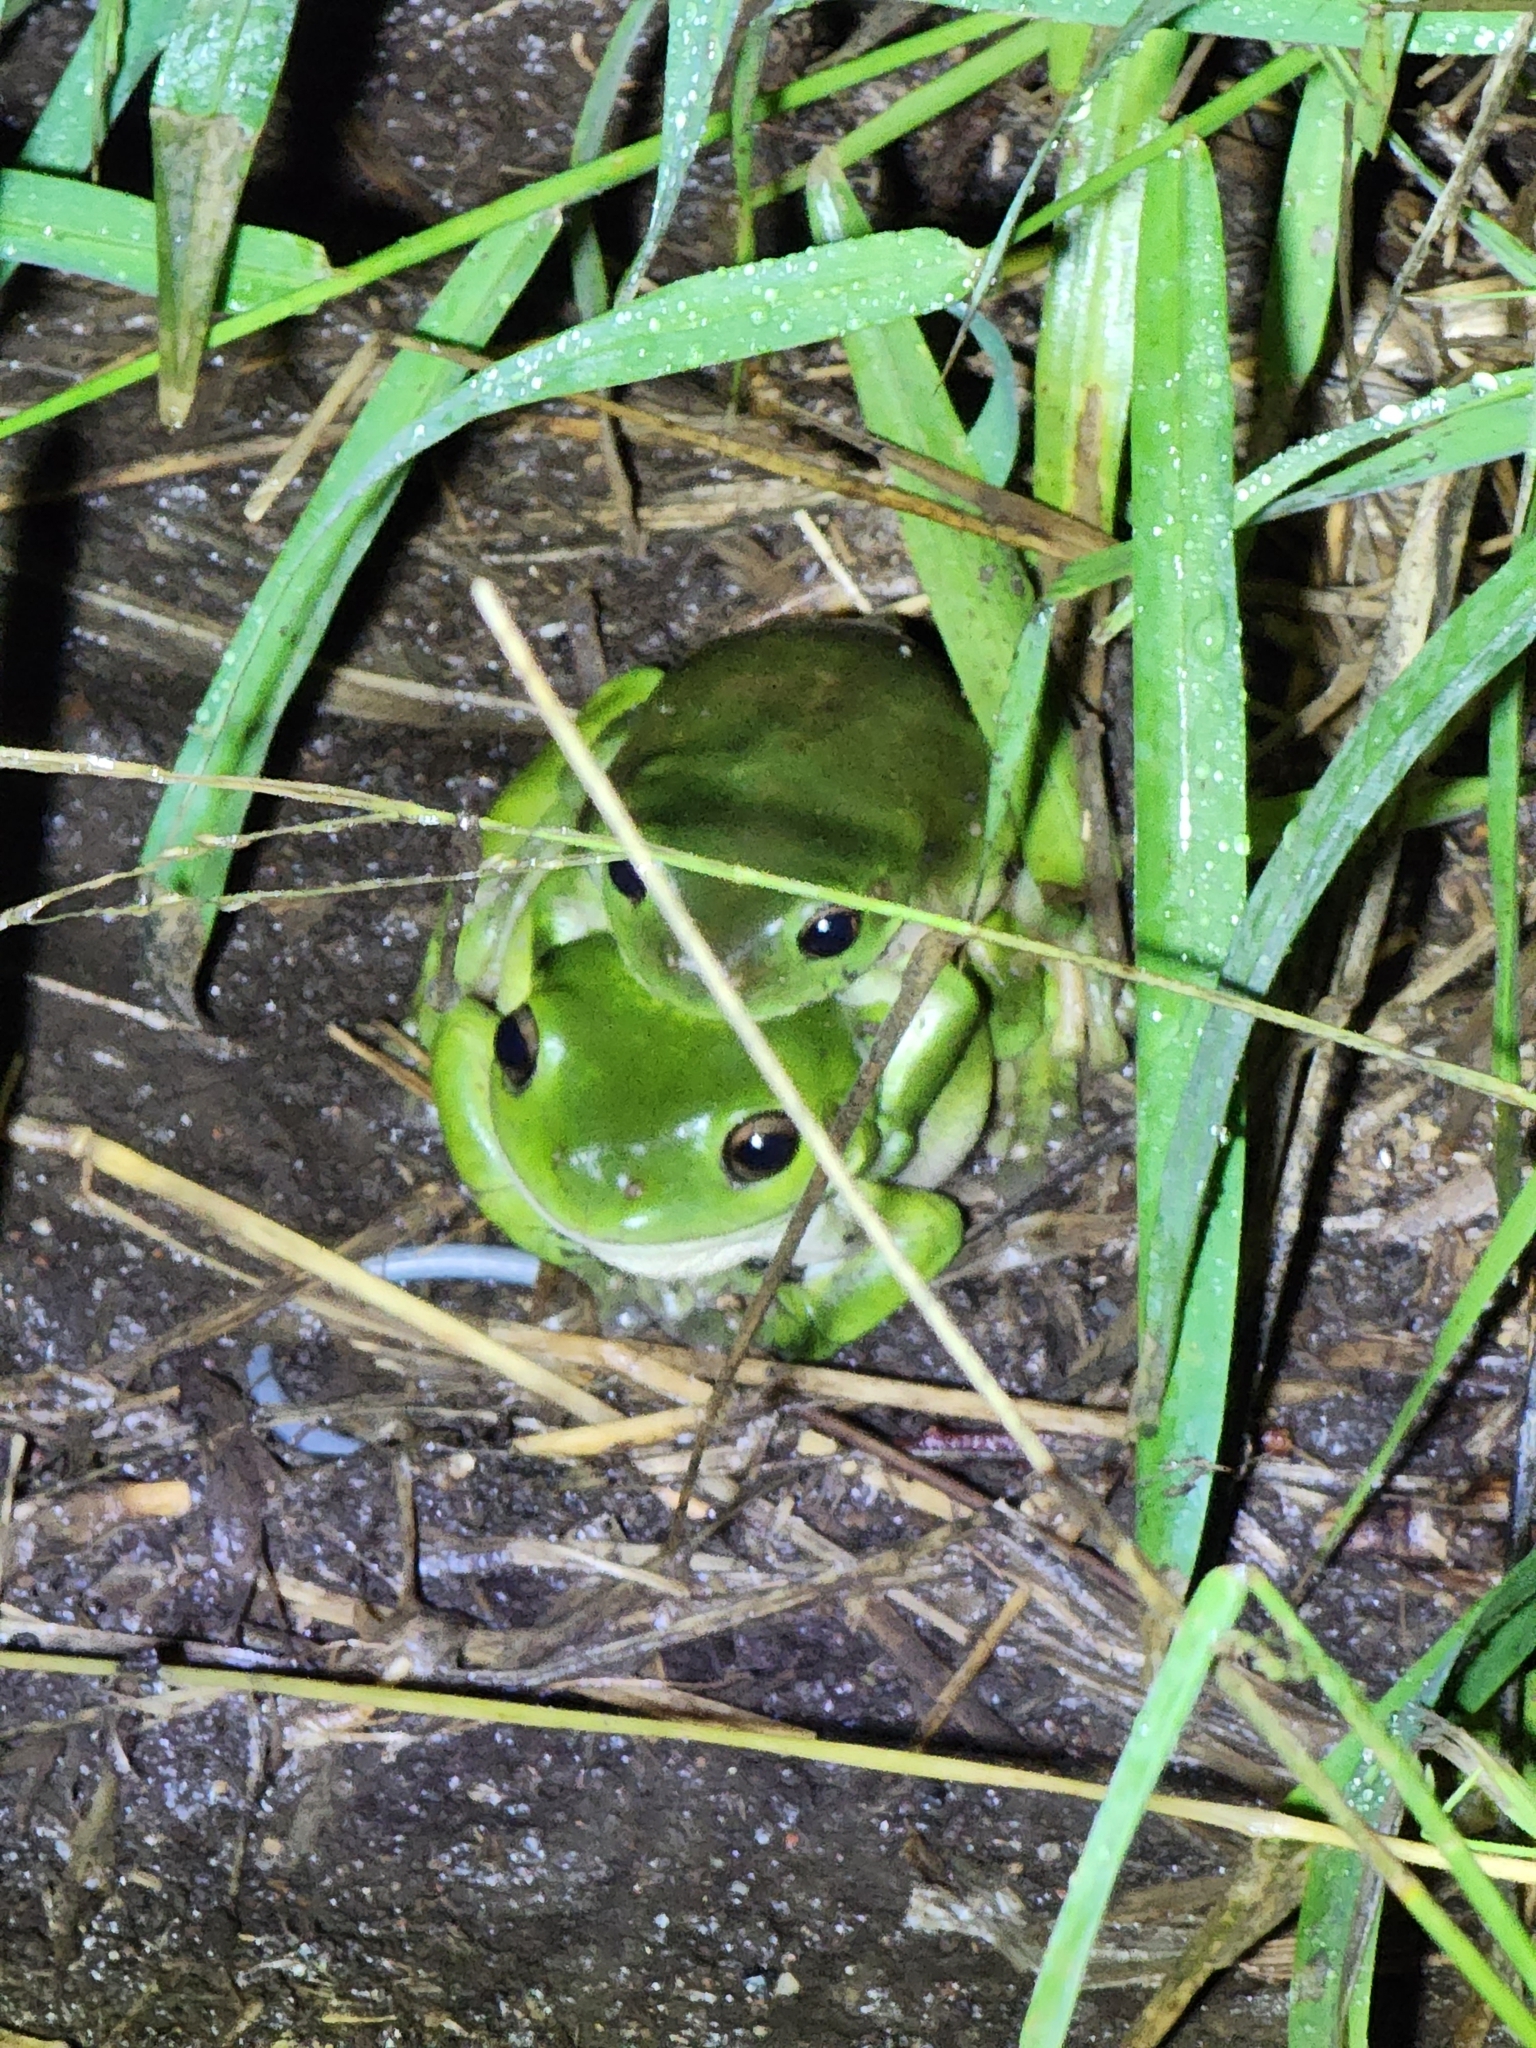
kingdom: Animalia
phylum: Chordata
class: Amphibia
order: Anura
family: Pelodryadidae
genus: Ranoidea
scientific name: Ranoidea caerulea
